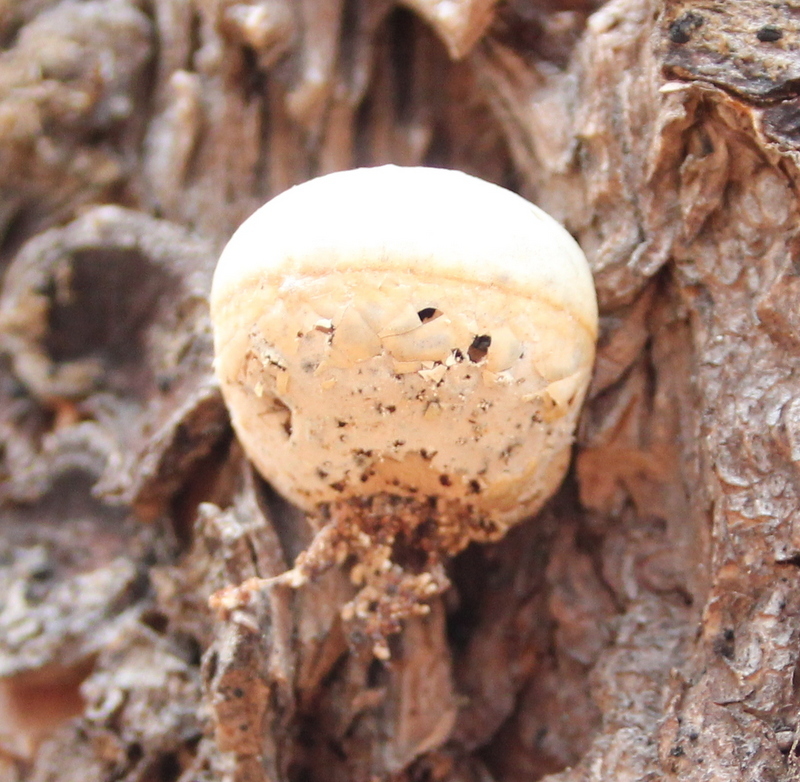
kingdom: Fungi
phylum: Basidiomycota
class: Agaricomycetes
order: Polyporales
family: Polyporaceae
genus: Cryptoporus
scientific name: Cryptoporus volvatus
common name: Veiled polypore
